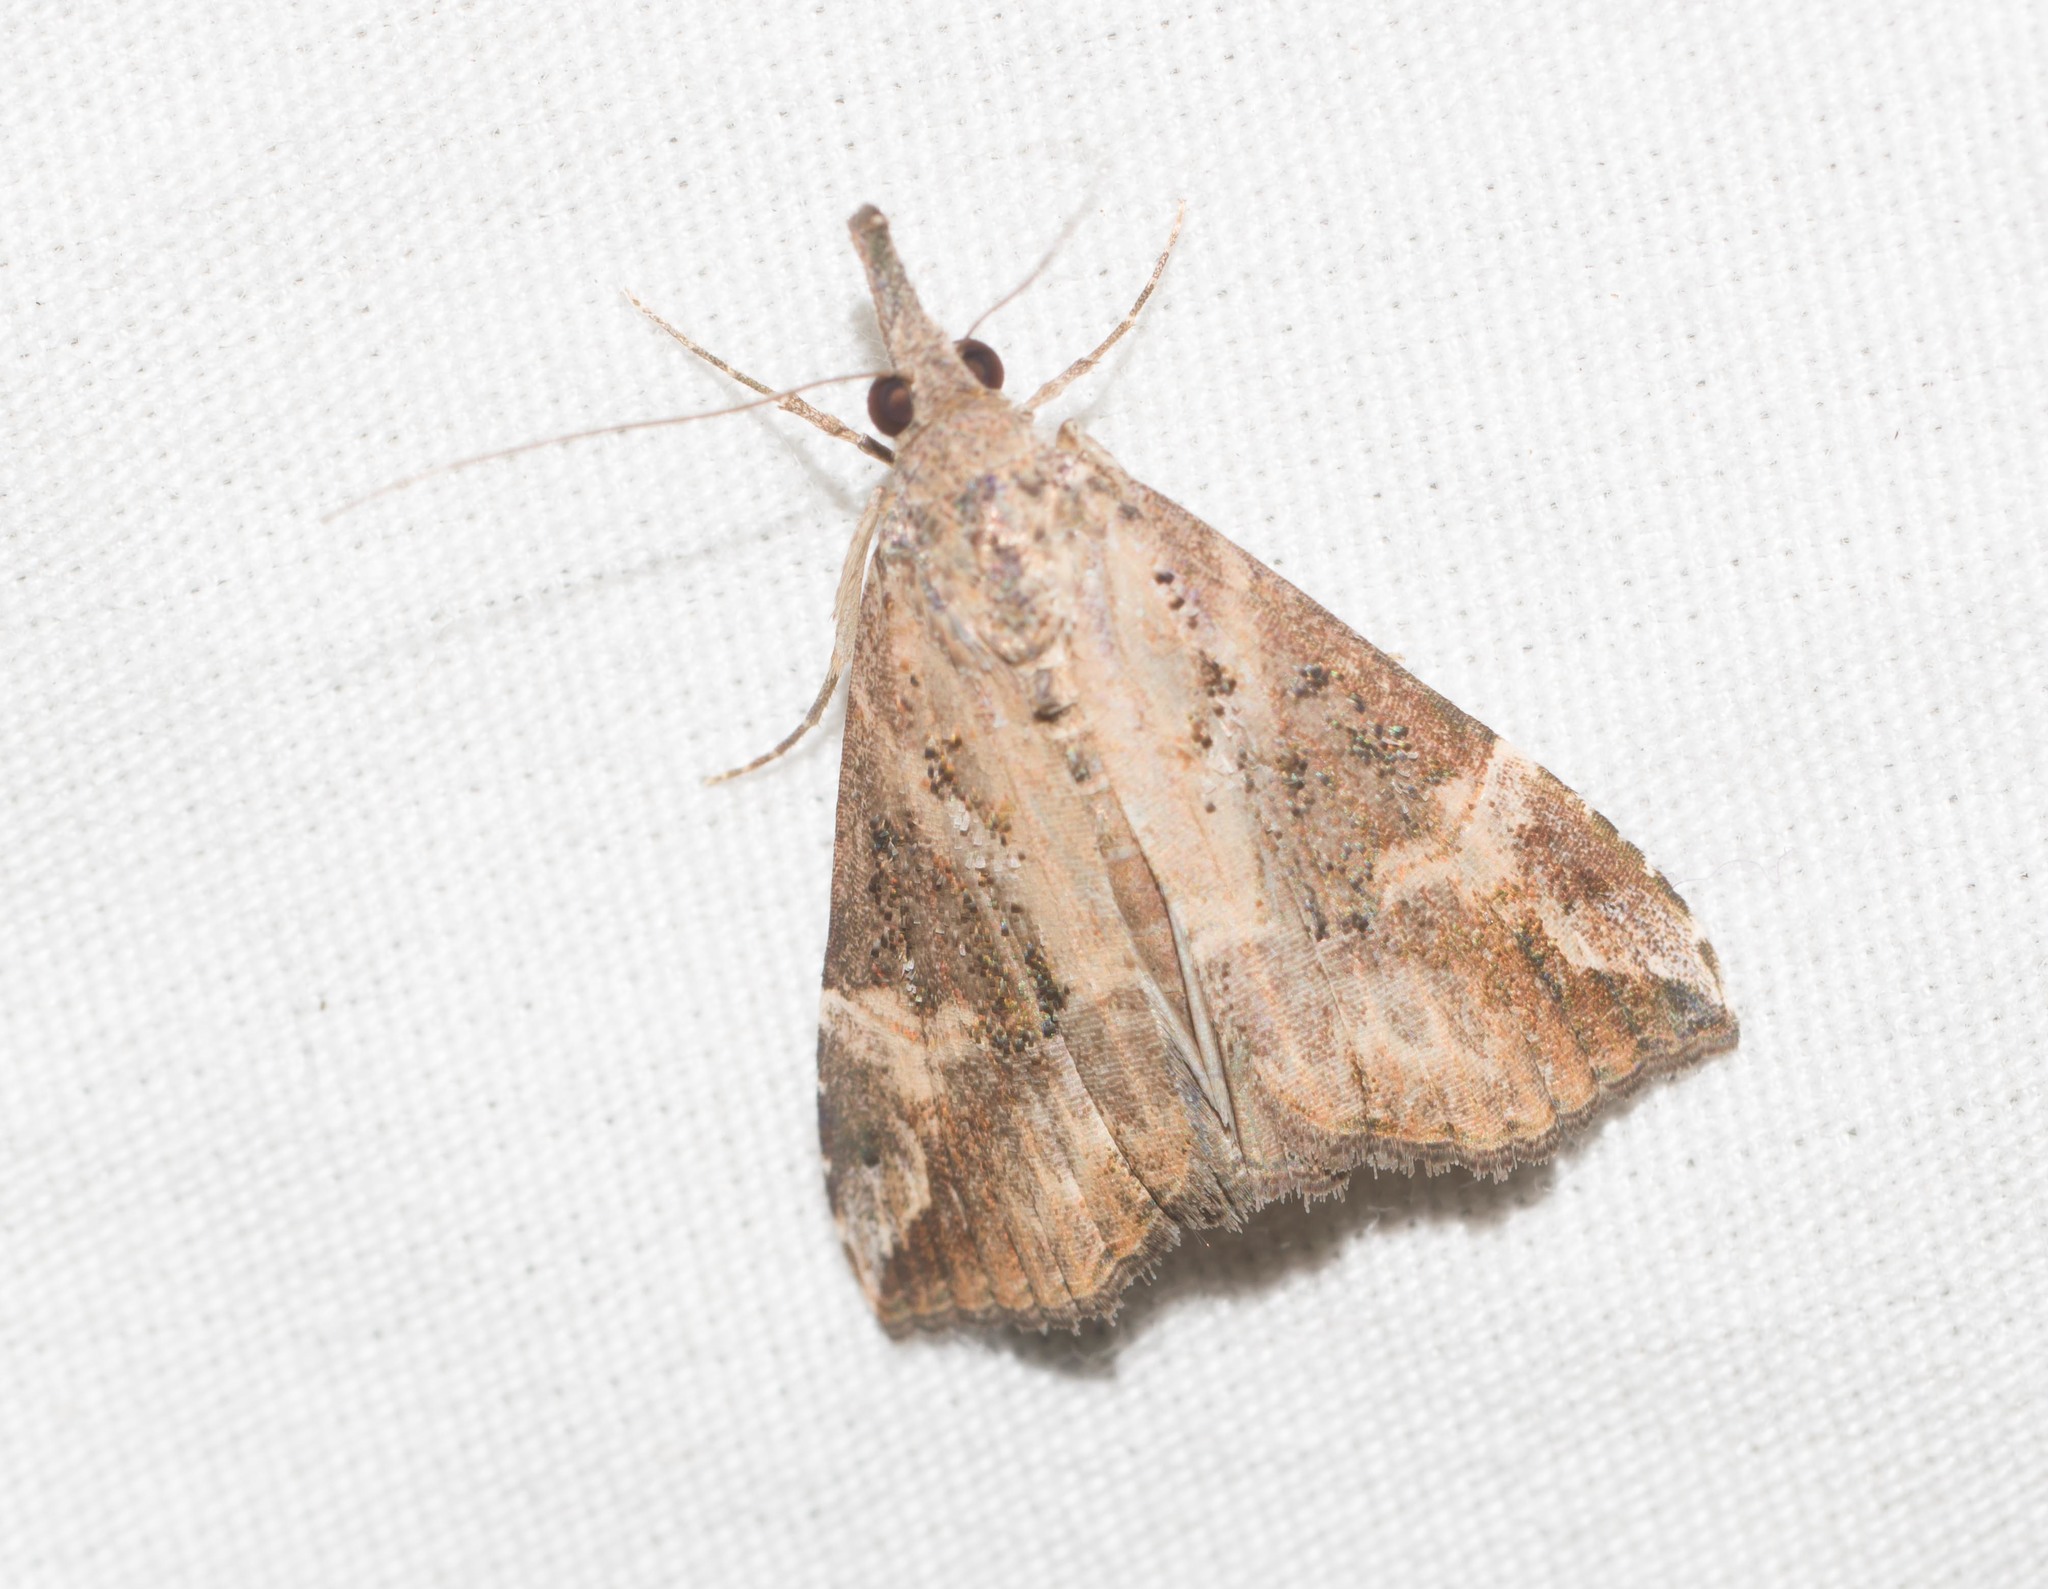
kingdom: Animalia
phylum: Arthropoda
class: Insecta
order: Lepidoptera
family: Erebidae
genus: Hypena
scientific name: Hypena commixtalis
